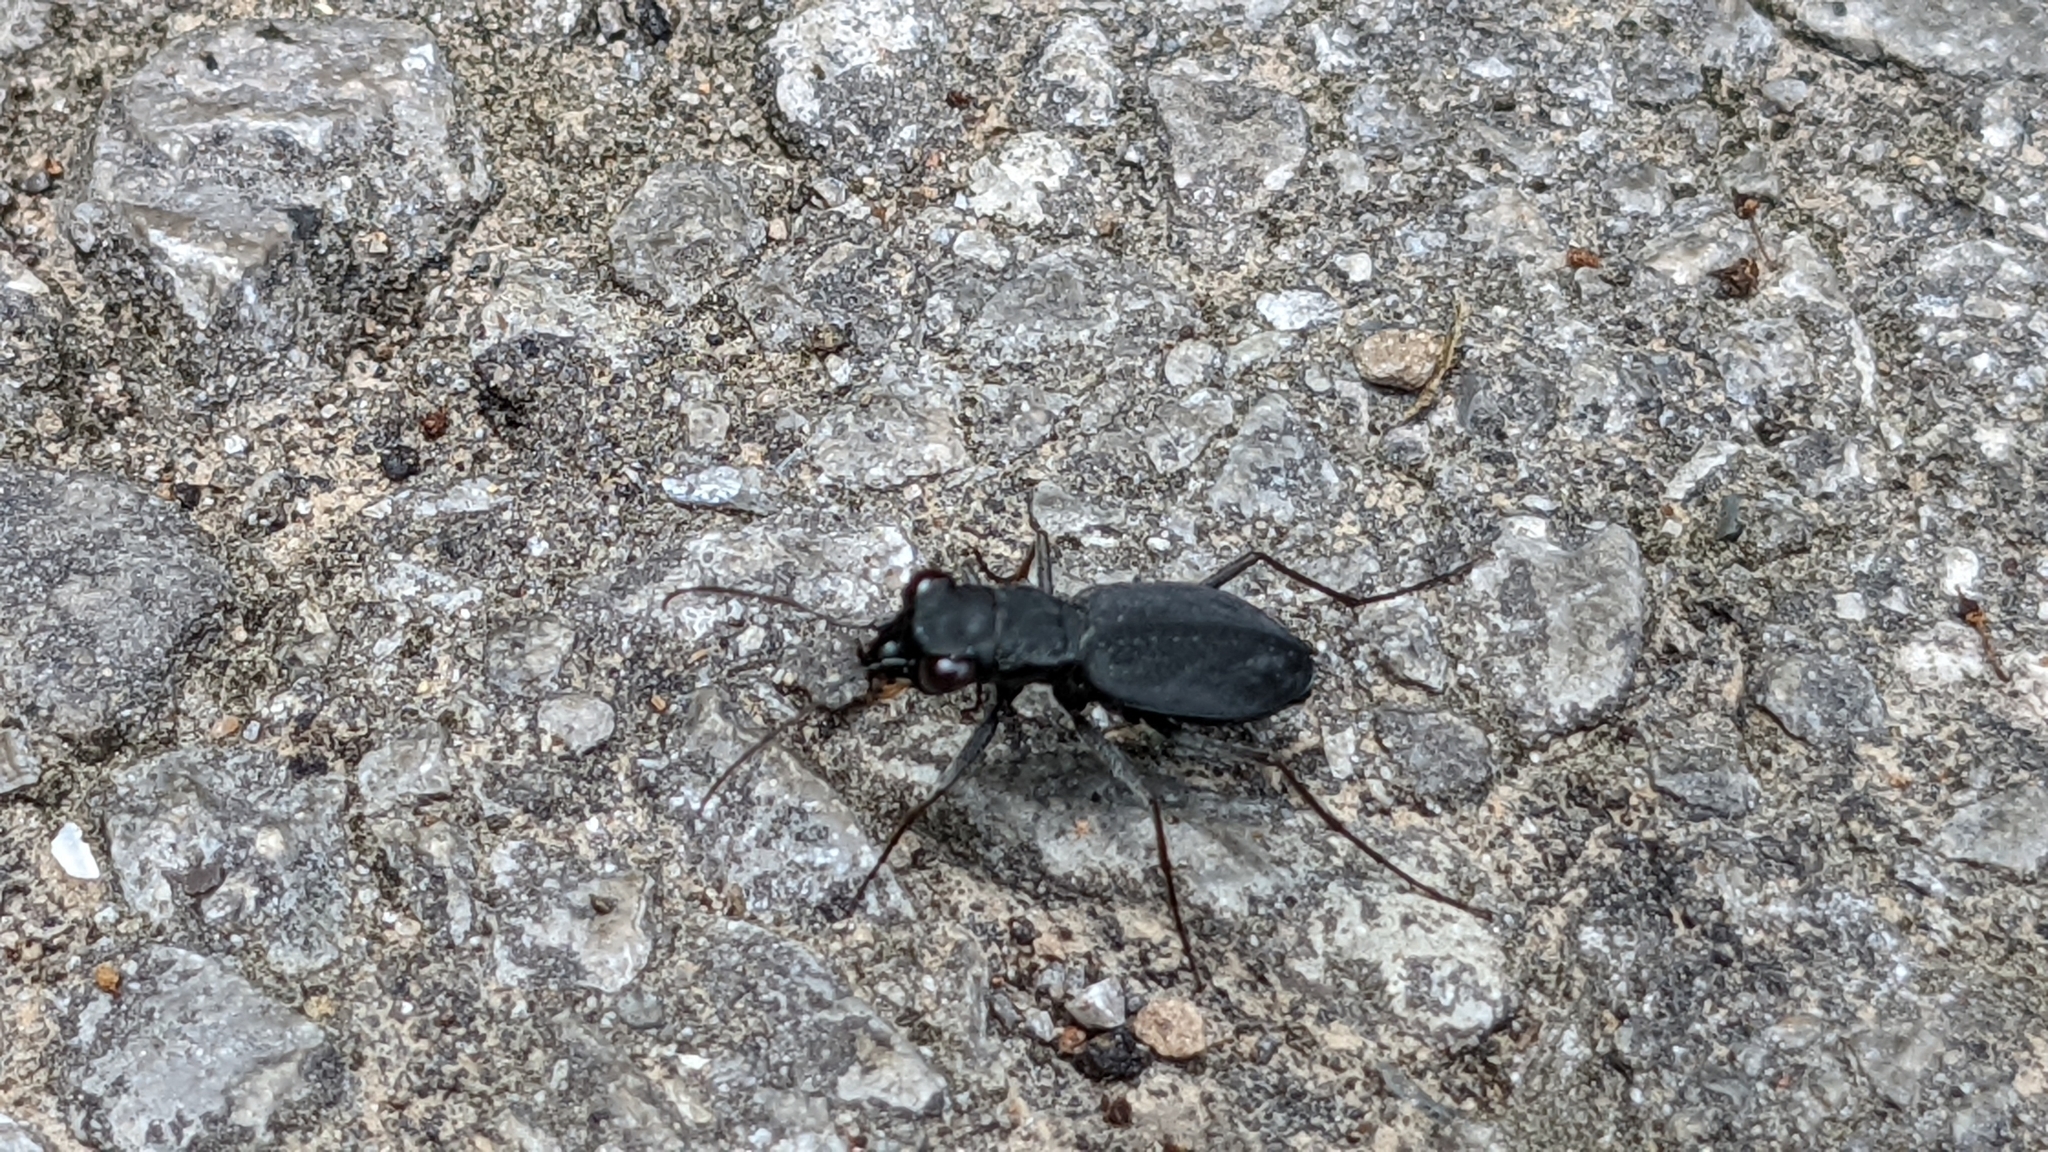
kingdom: Animalia
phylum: Arthropoda
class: Insecta
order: Coleoptera
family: Carabidae
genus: Dromochorus
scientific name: Dromochorus pilatei
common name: Cajun dromo tiger beetle
